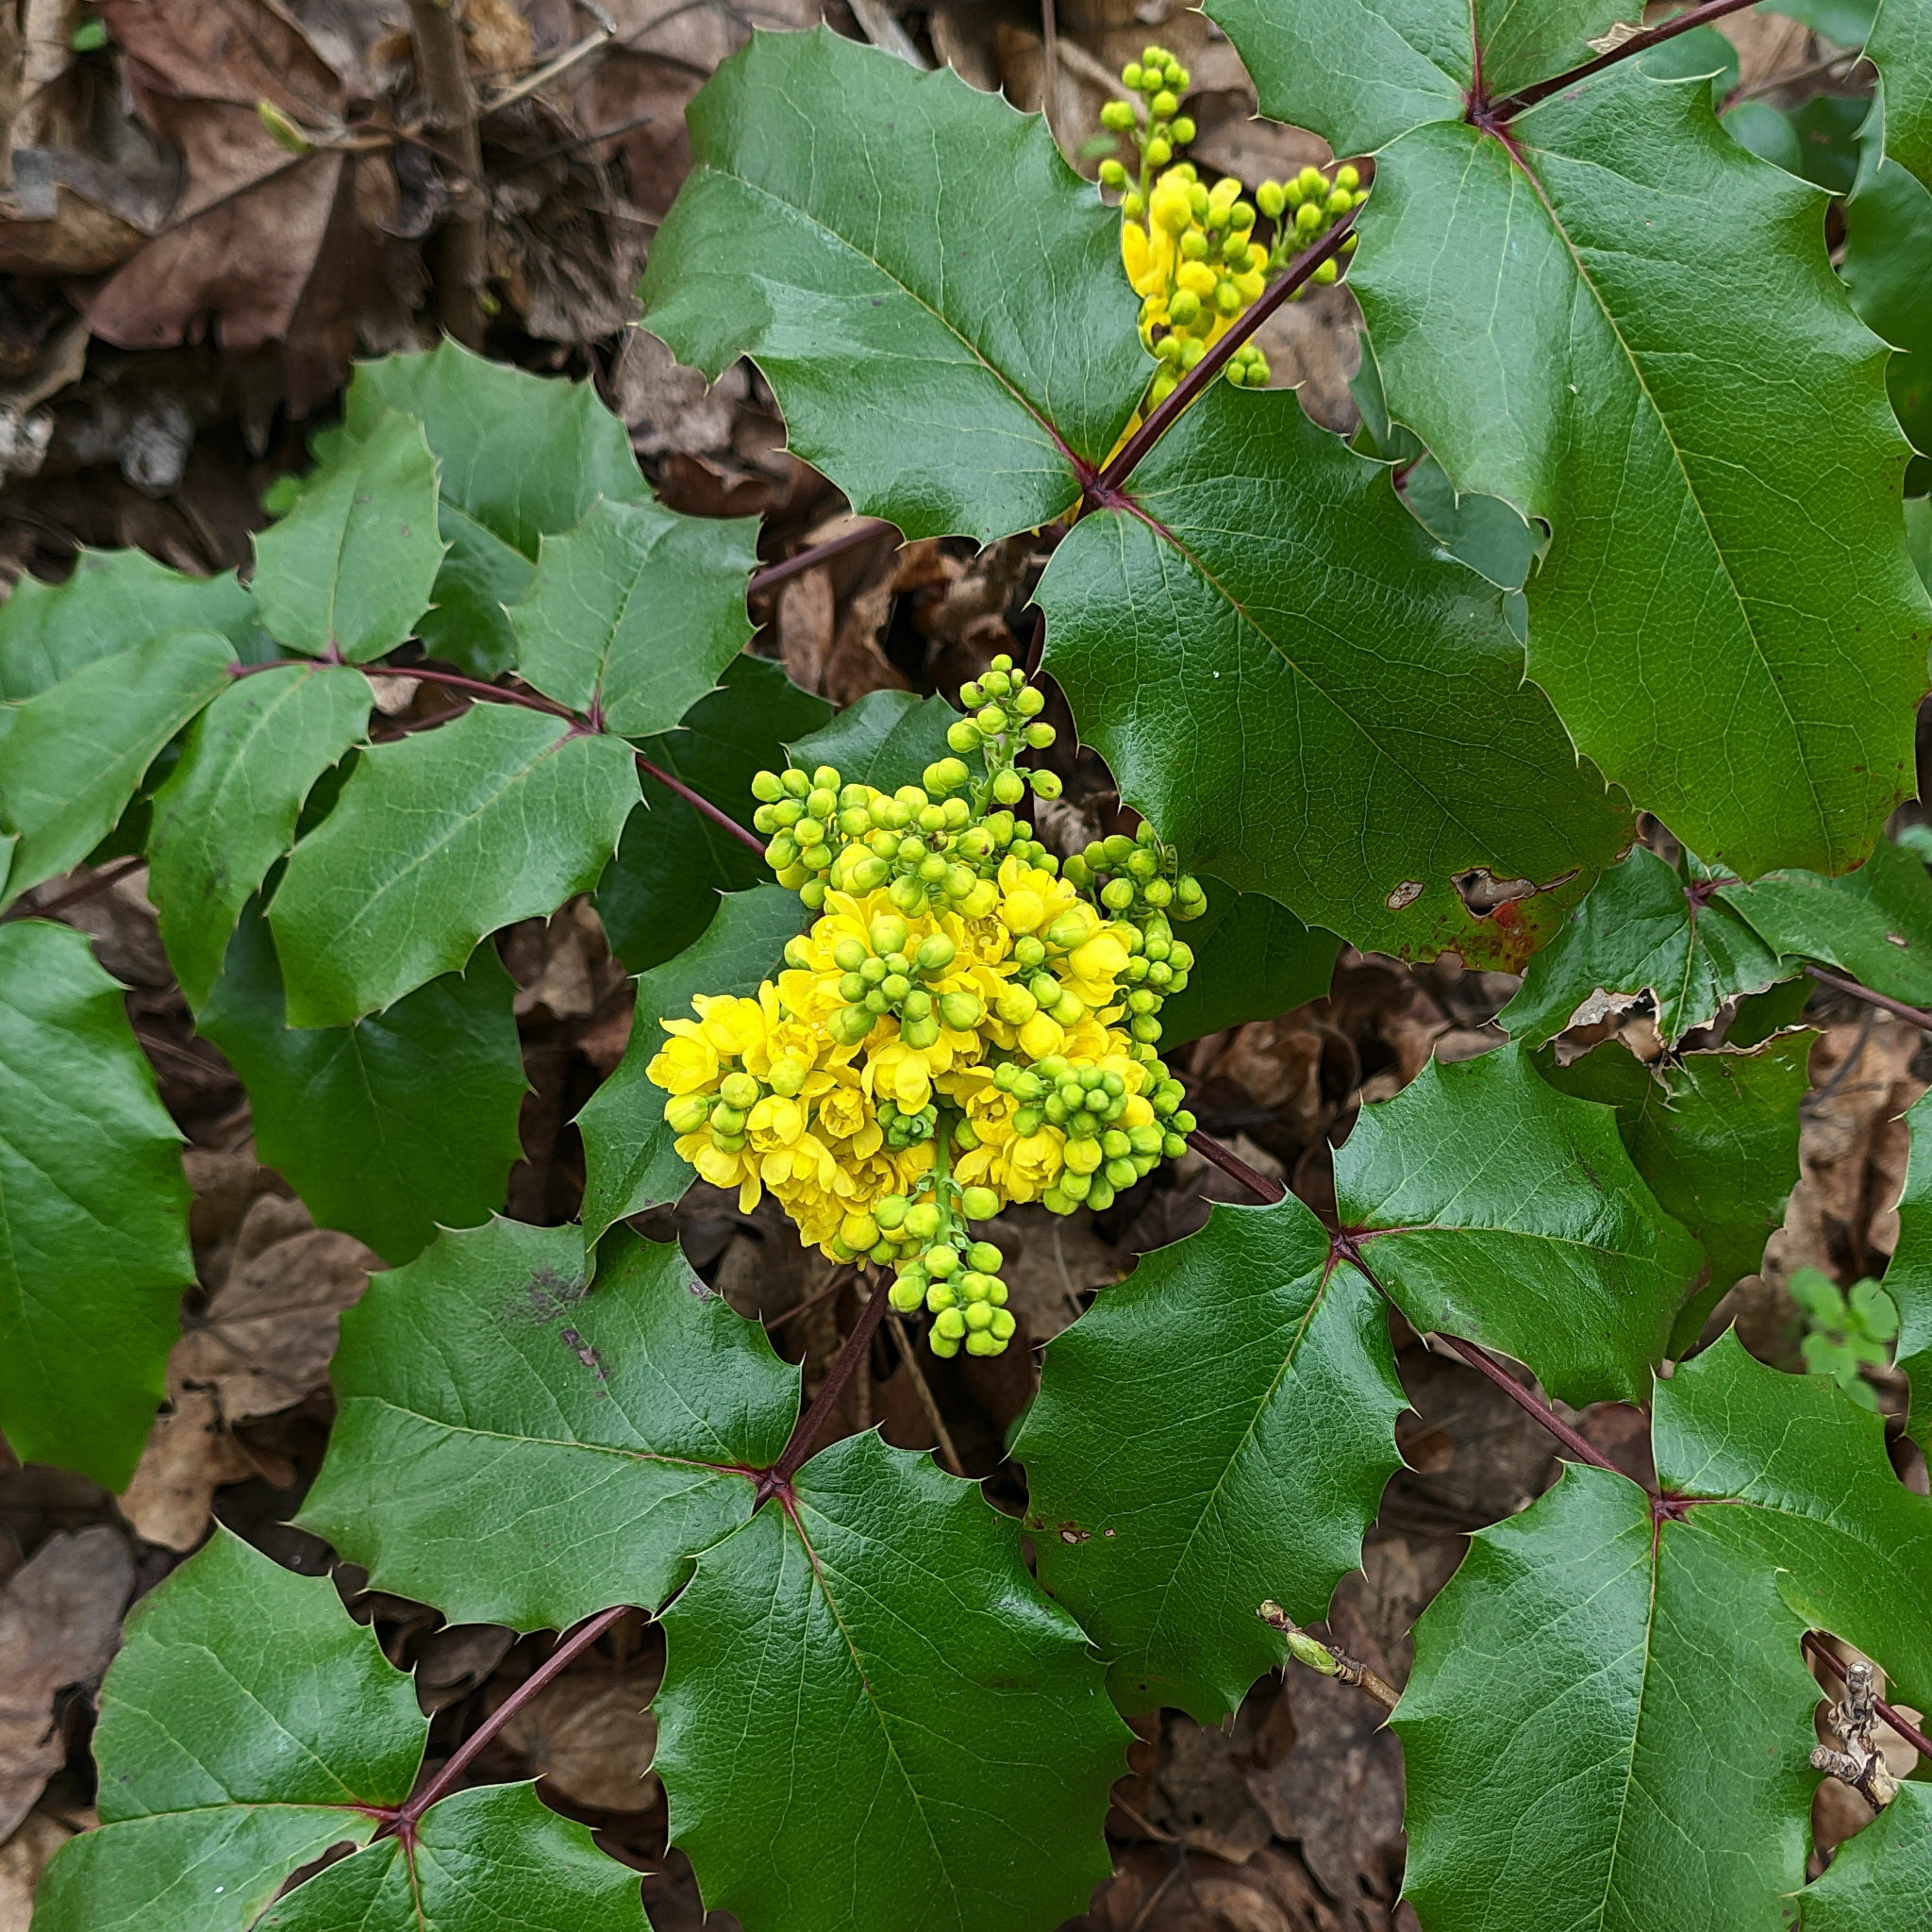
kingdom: Plantae
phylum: Tracheophyta
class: Magnoliopsida
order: Ranunculales
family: Berberidaceae
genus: Mahonia
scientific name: Mahonia aquifolium
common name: Oregon-grape
